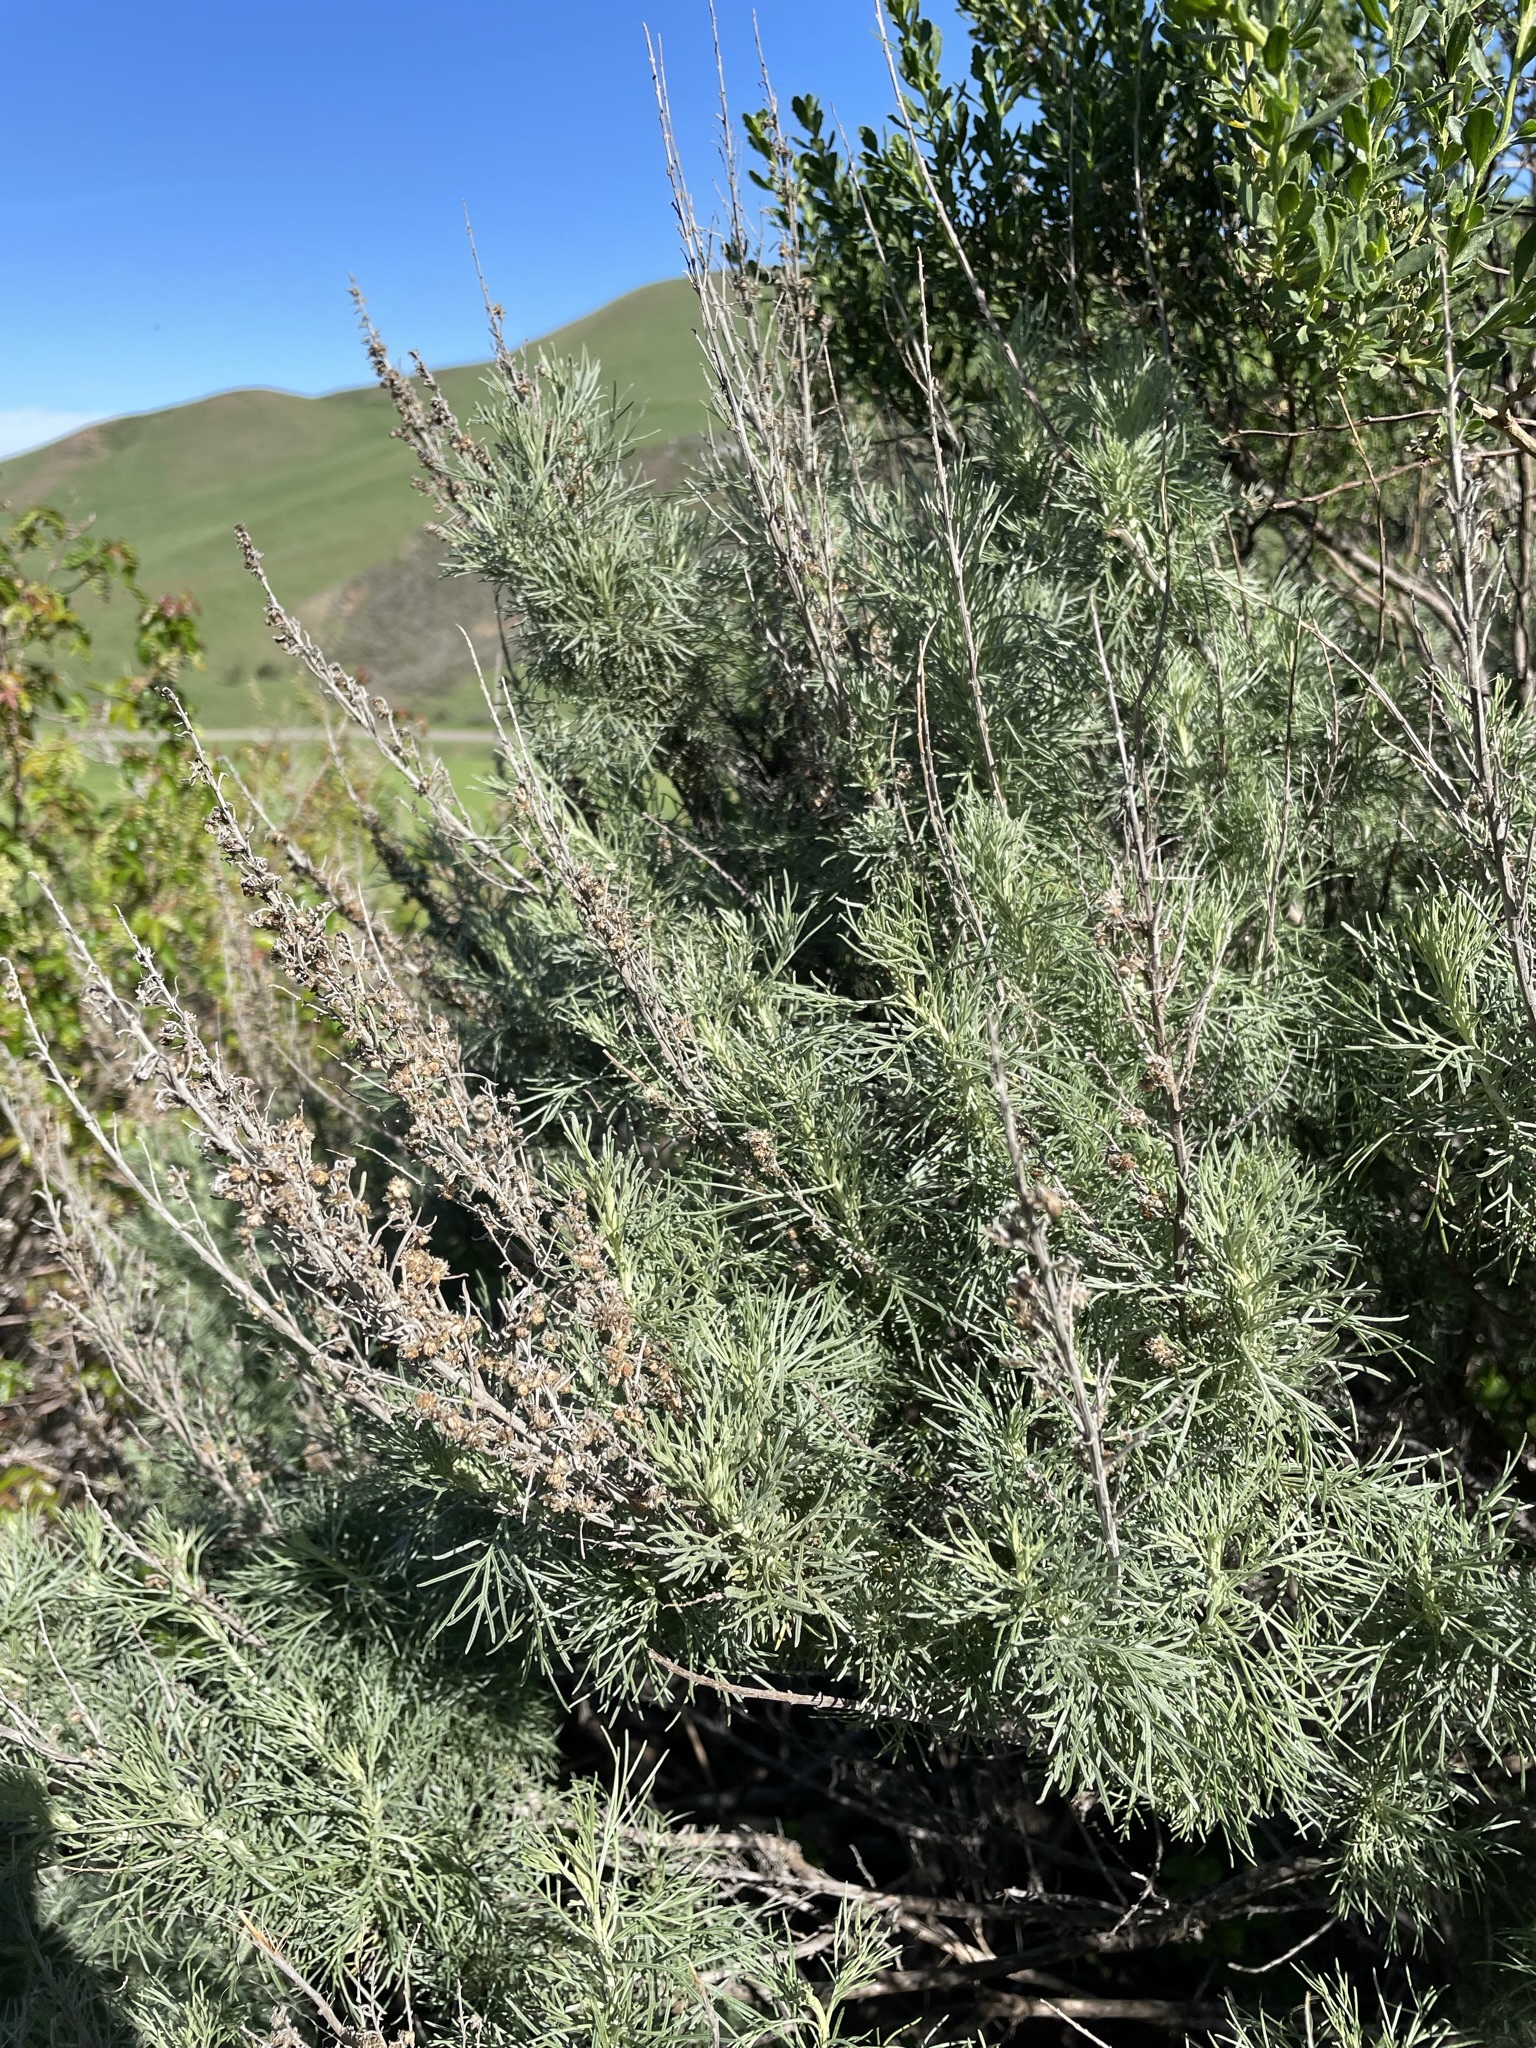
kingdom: Plantae
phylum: Tracheophyta
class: Magnoliopsida
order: Asterales
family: Asteraceae
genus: Artemisia
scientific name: Artemisia californica
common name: California sagebrush
